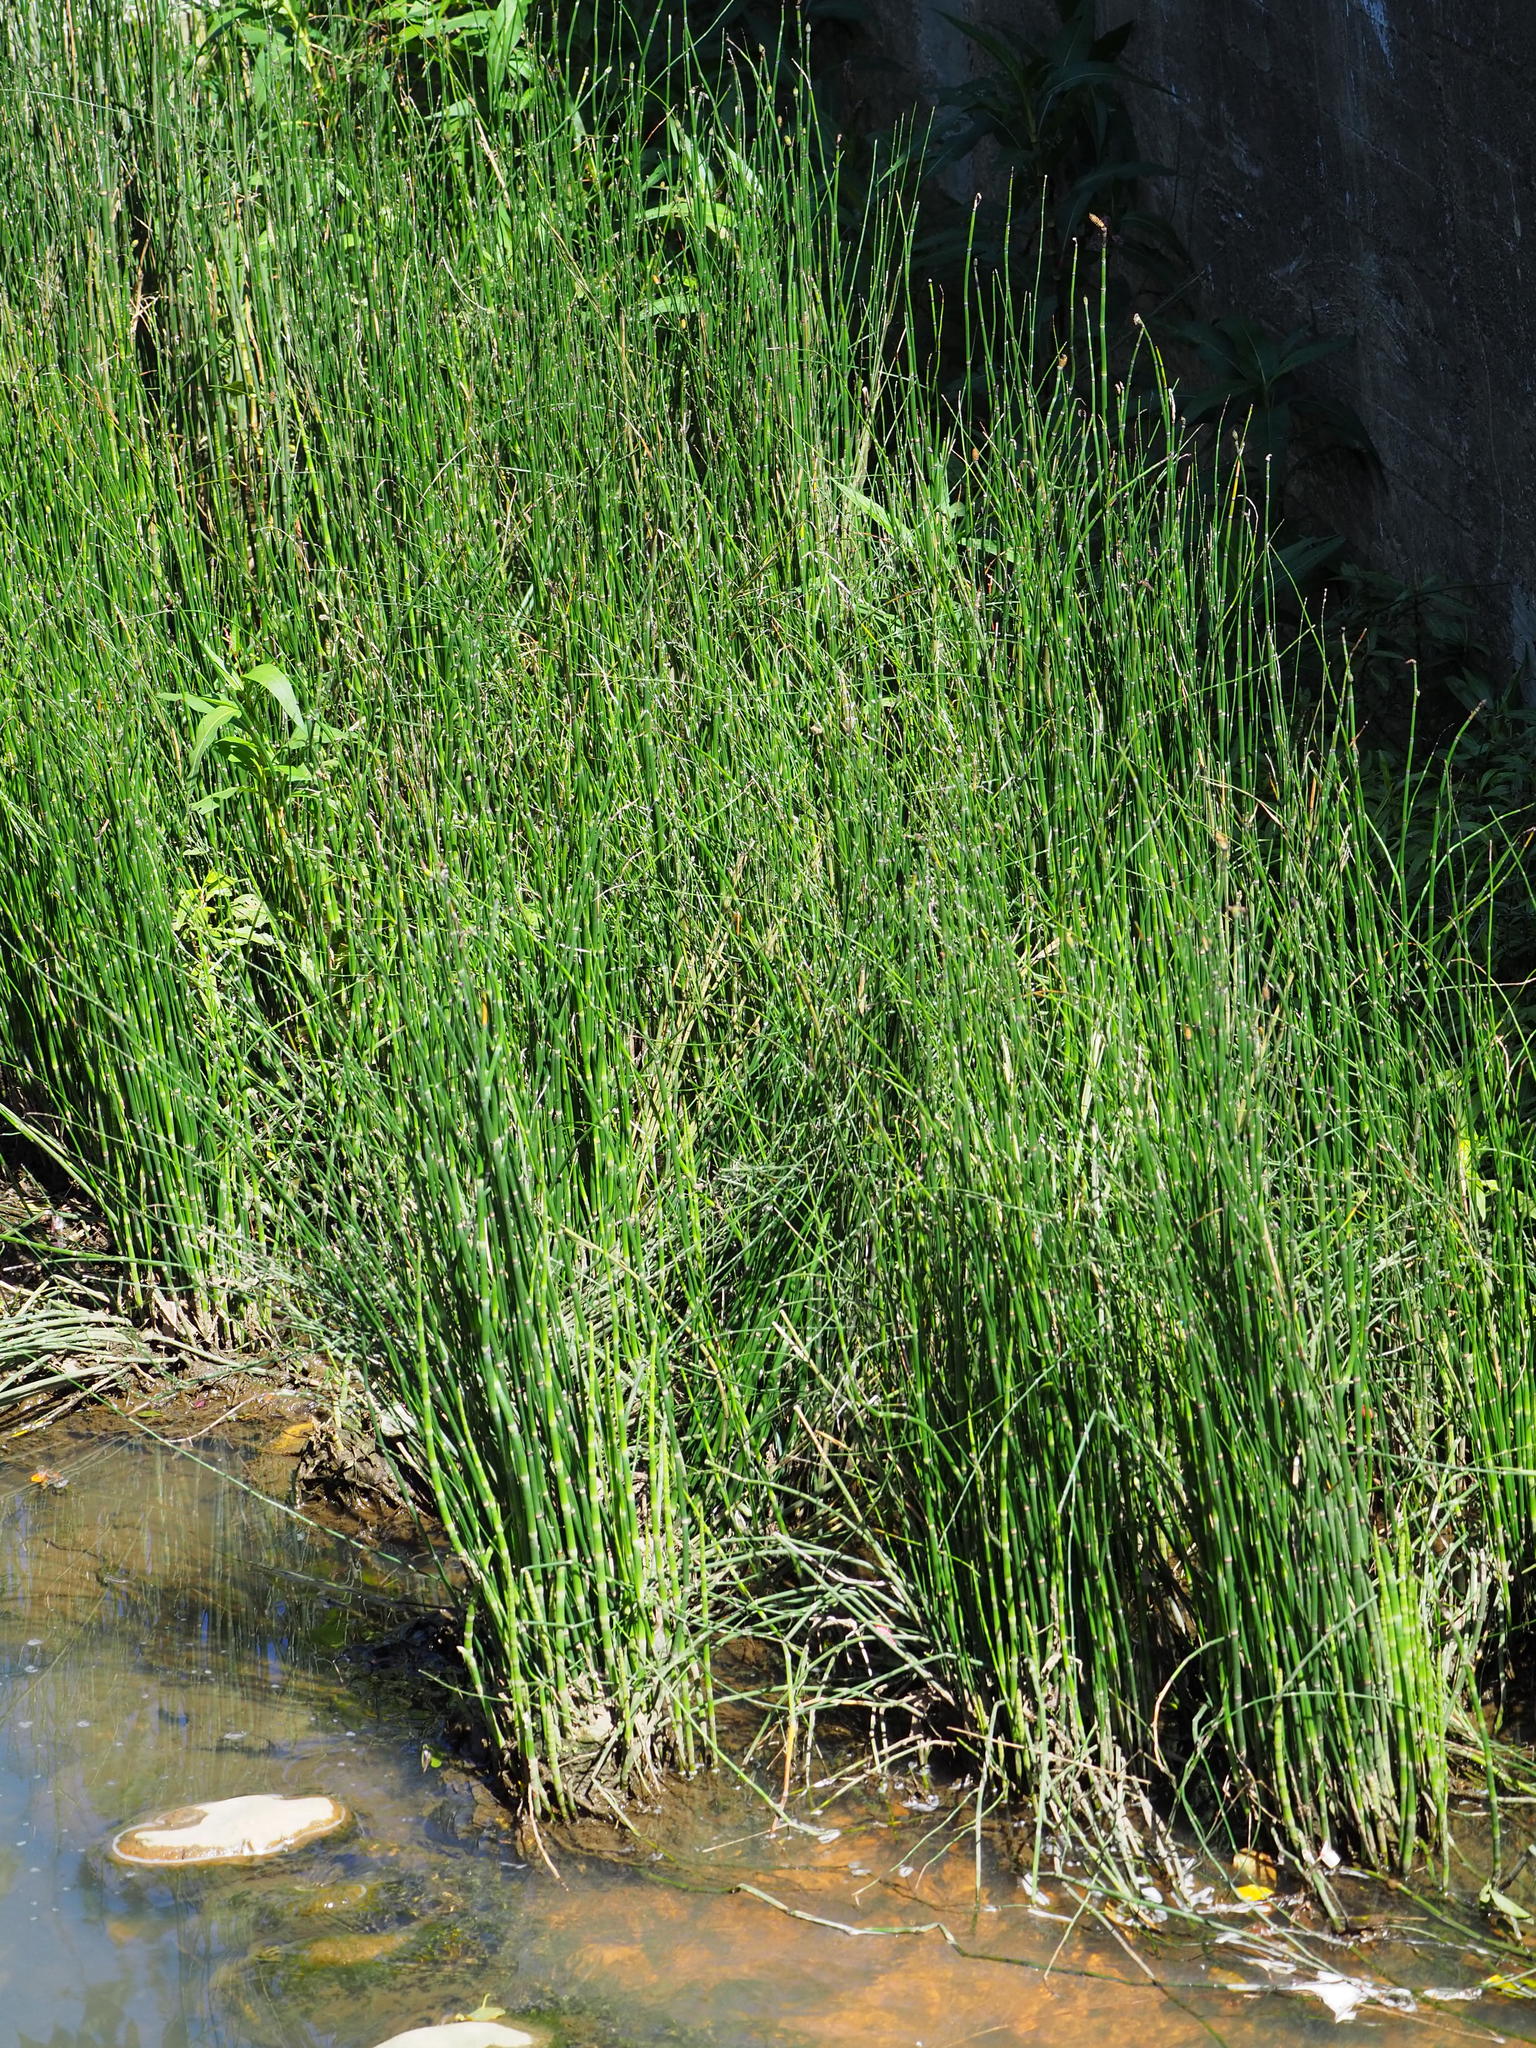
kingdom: Plantae
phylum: Tracheophyta
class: Polypodiopsida
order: Equisetales
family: Equisetaceae
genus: Equisetum
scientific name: Equisetum ramosissimum
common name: Branched horsetail
